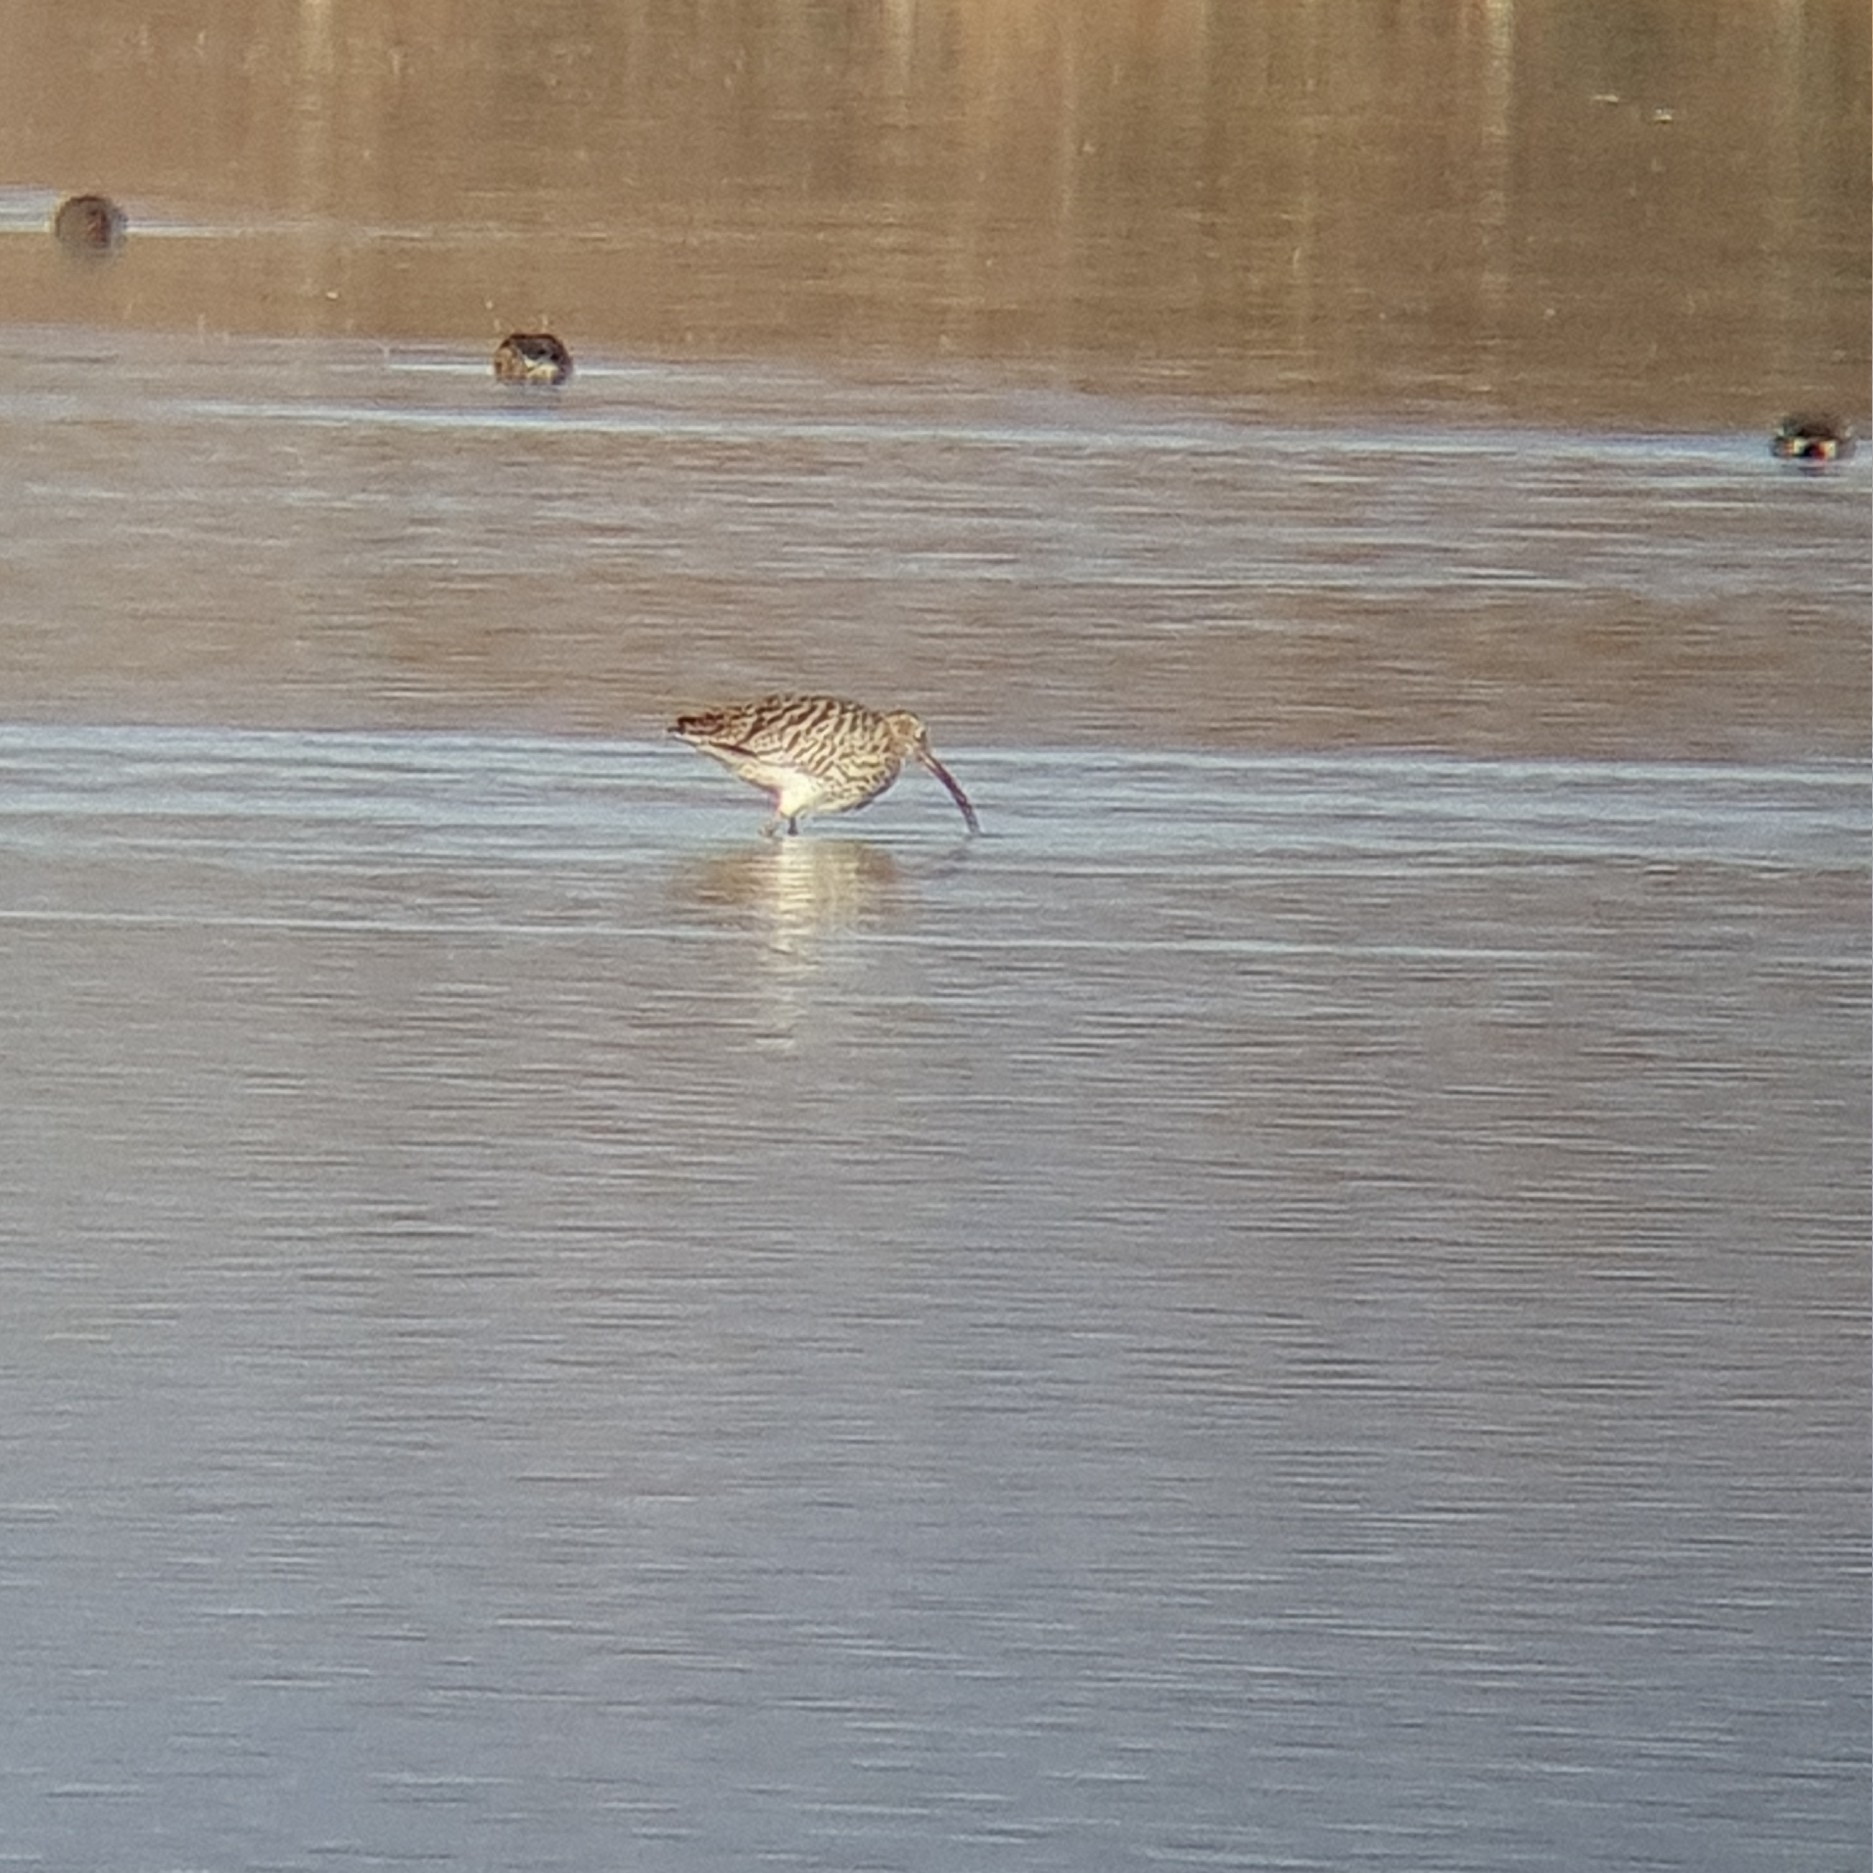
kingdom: Animalia
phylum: Chordata
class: Aves
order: Charadriiformes
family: Scolopacidae
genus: Numenius
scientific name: Numenius arquata
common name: Eurasian curlew
